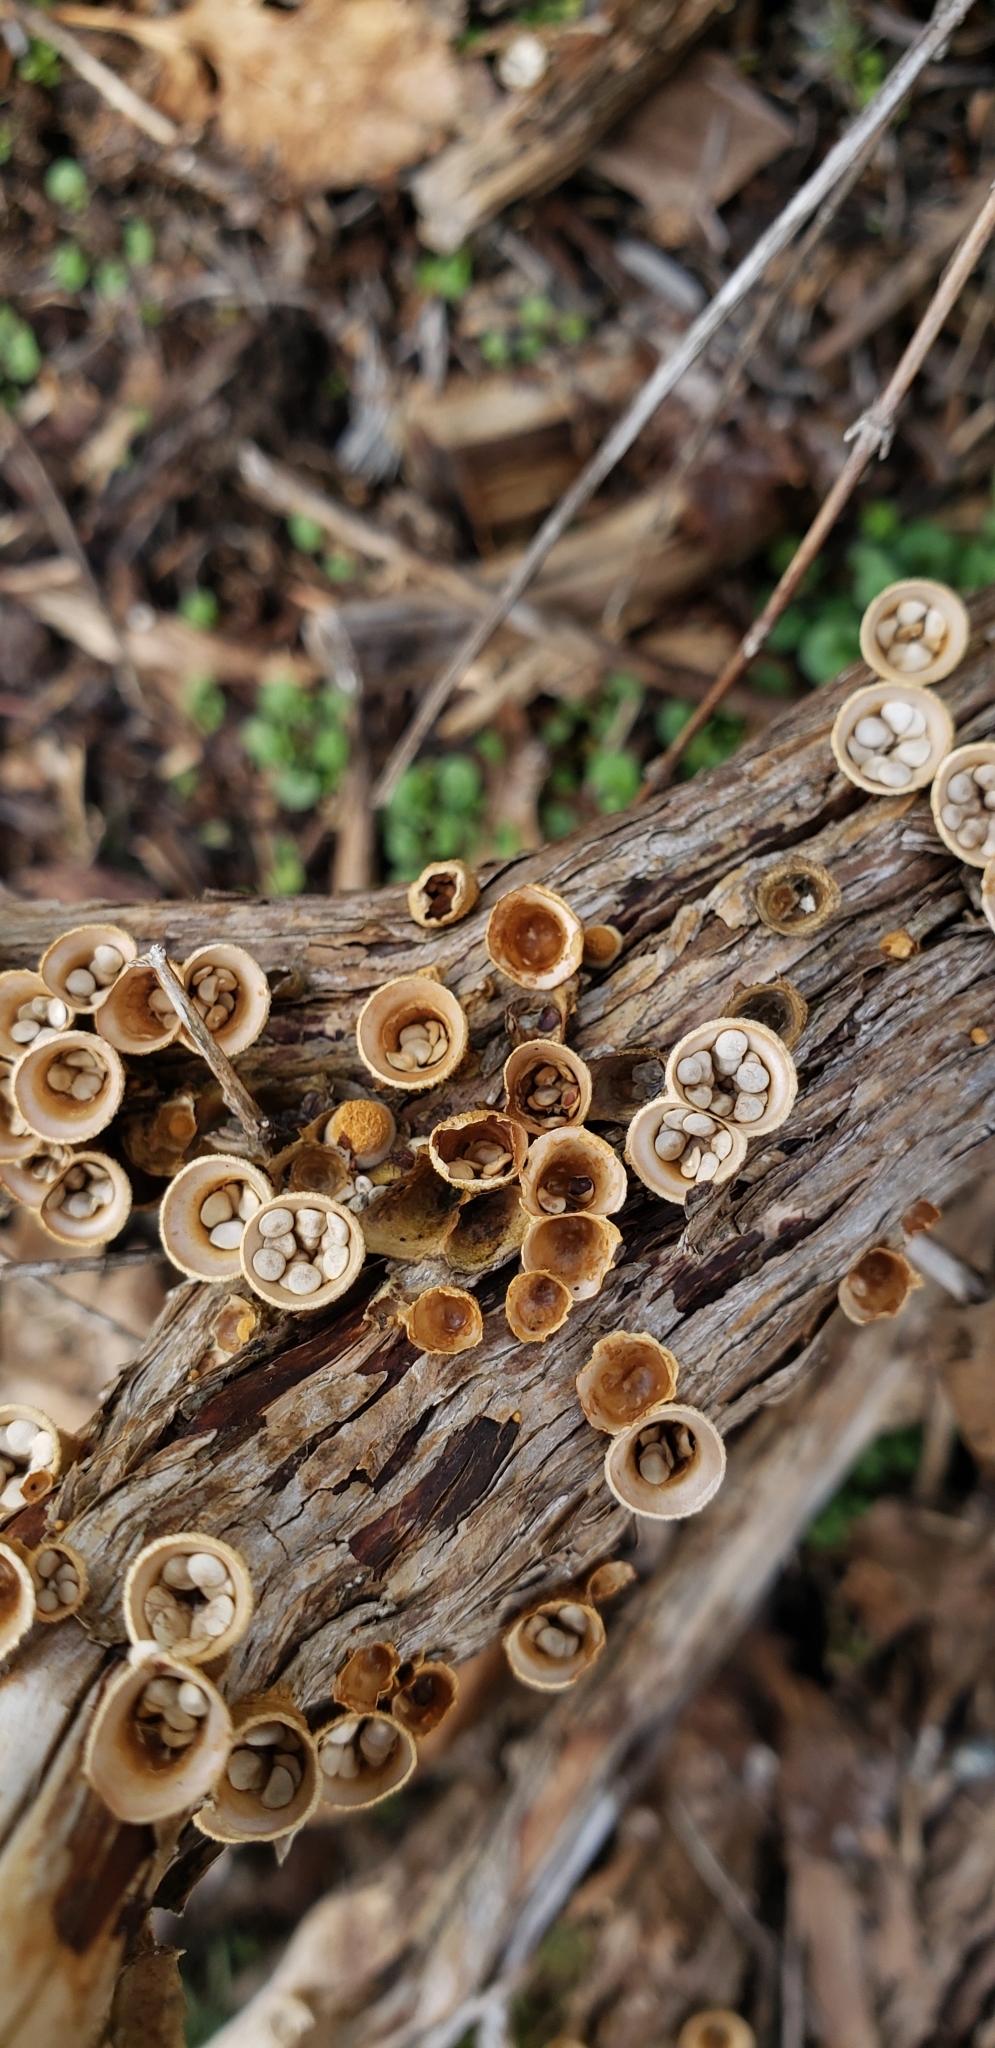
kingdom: Fungi
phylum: Basidiomycota
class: Agaricomycetes
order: Agaricales
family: Nidulariaceae
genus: Crucibulum
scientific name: Crucibulum laeve
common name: Common bird's nest
